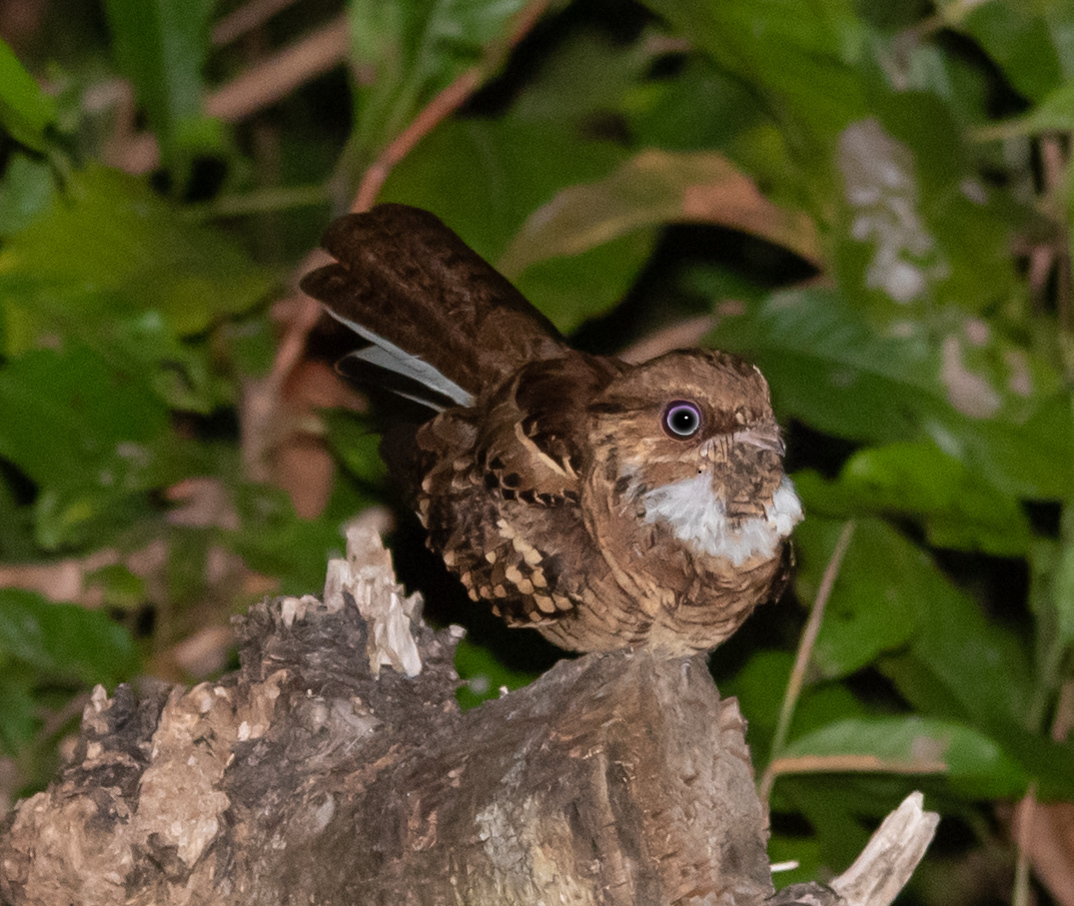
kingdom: Animalia
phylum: Chordata
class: Aves
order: Caprimulgiformes
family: Caprimulgidae
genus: Nyctidromus
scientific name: Nyctidromus albicollis
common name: Pauraque
